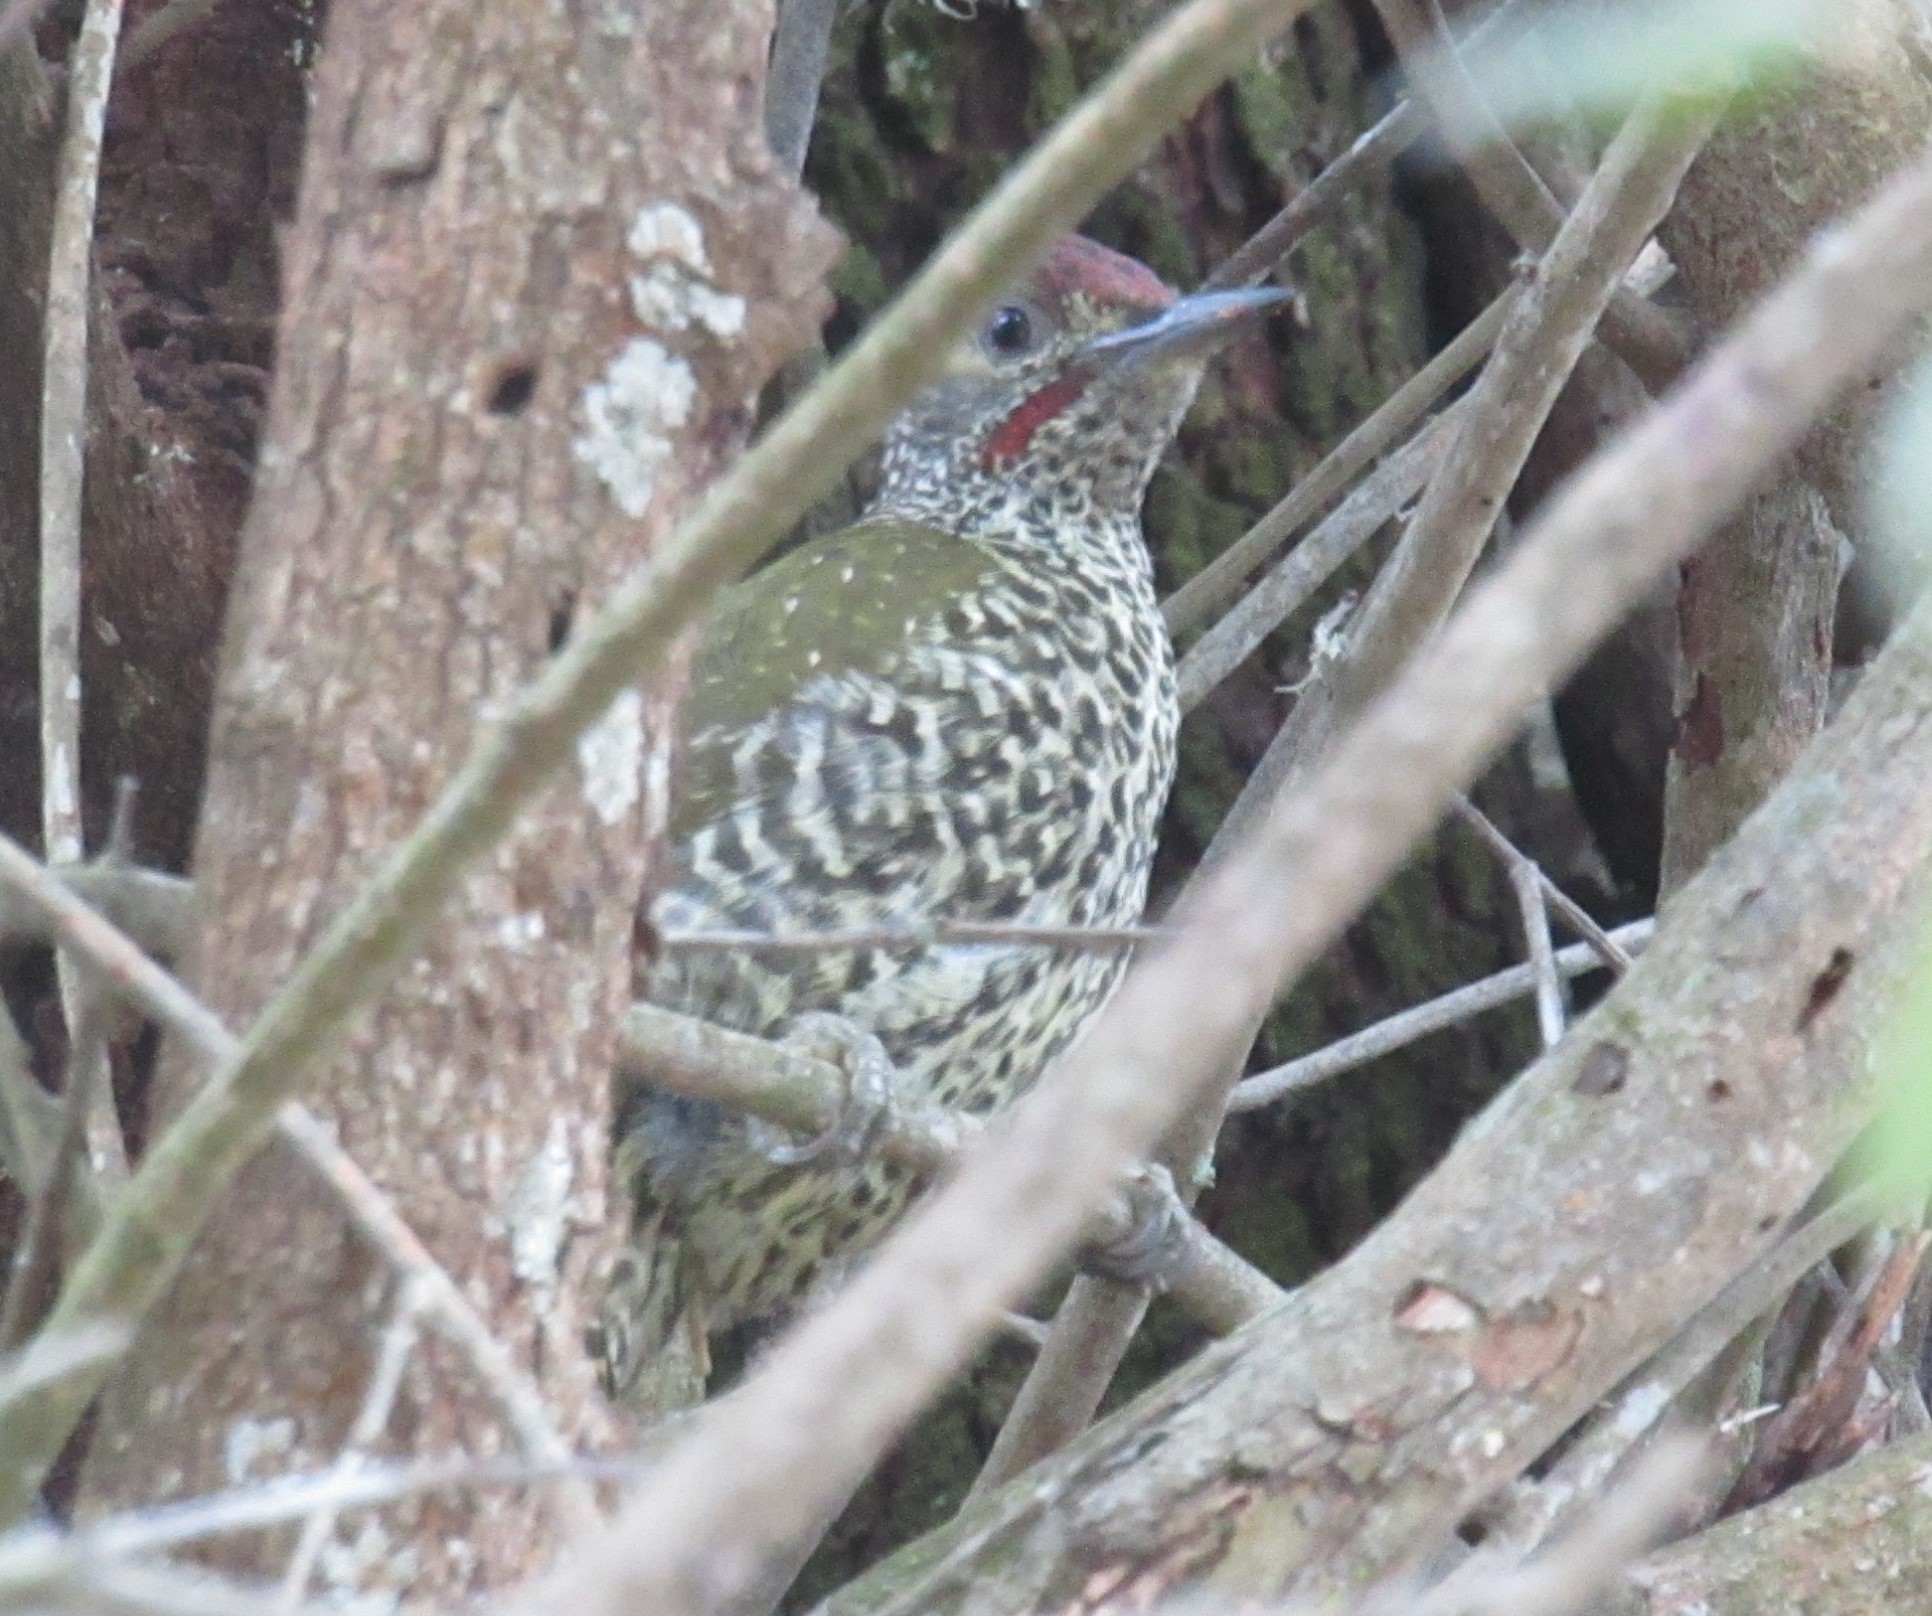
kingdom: Animalia
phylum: Chordata
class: Aves
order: Piciformes
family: Picidae
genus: Campethera
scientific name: Campethera notata
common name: Knysna woodpecker
